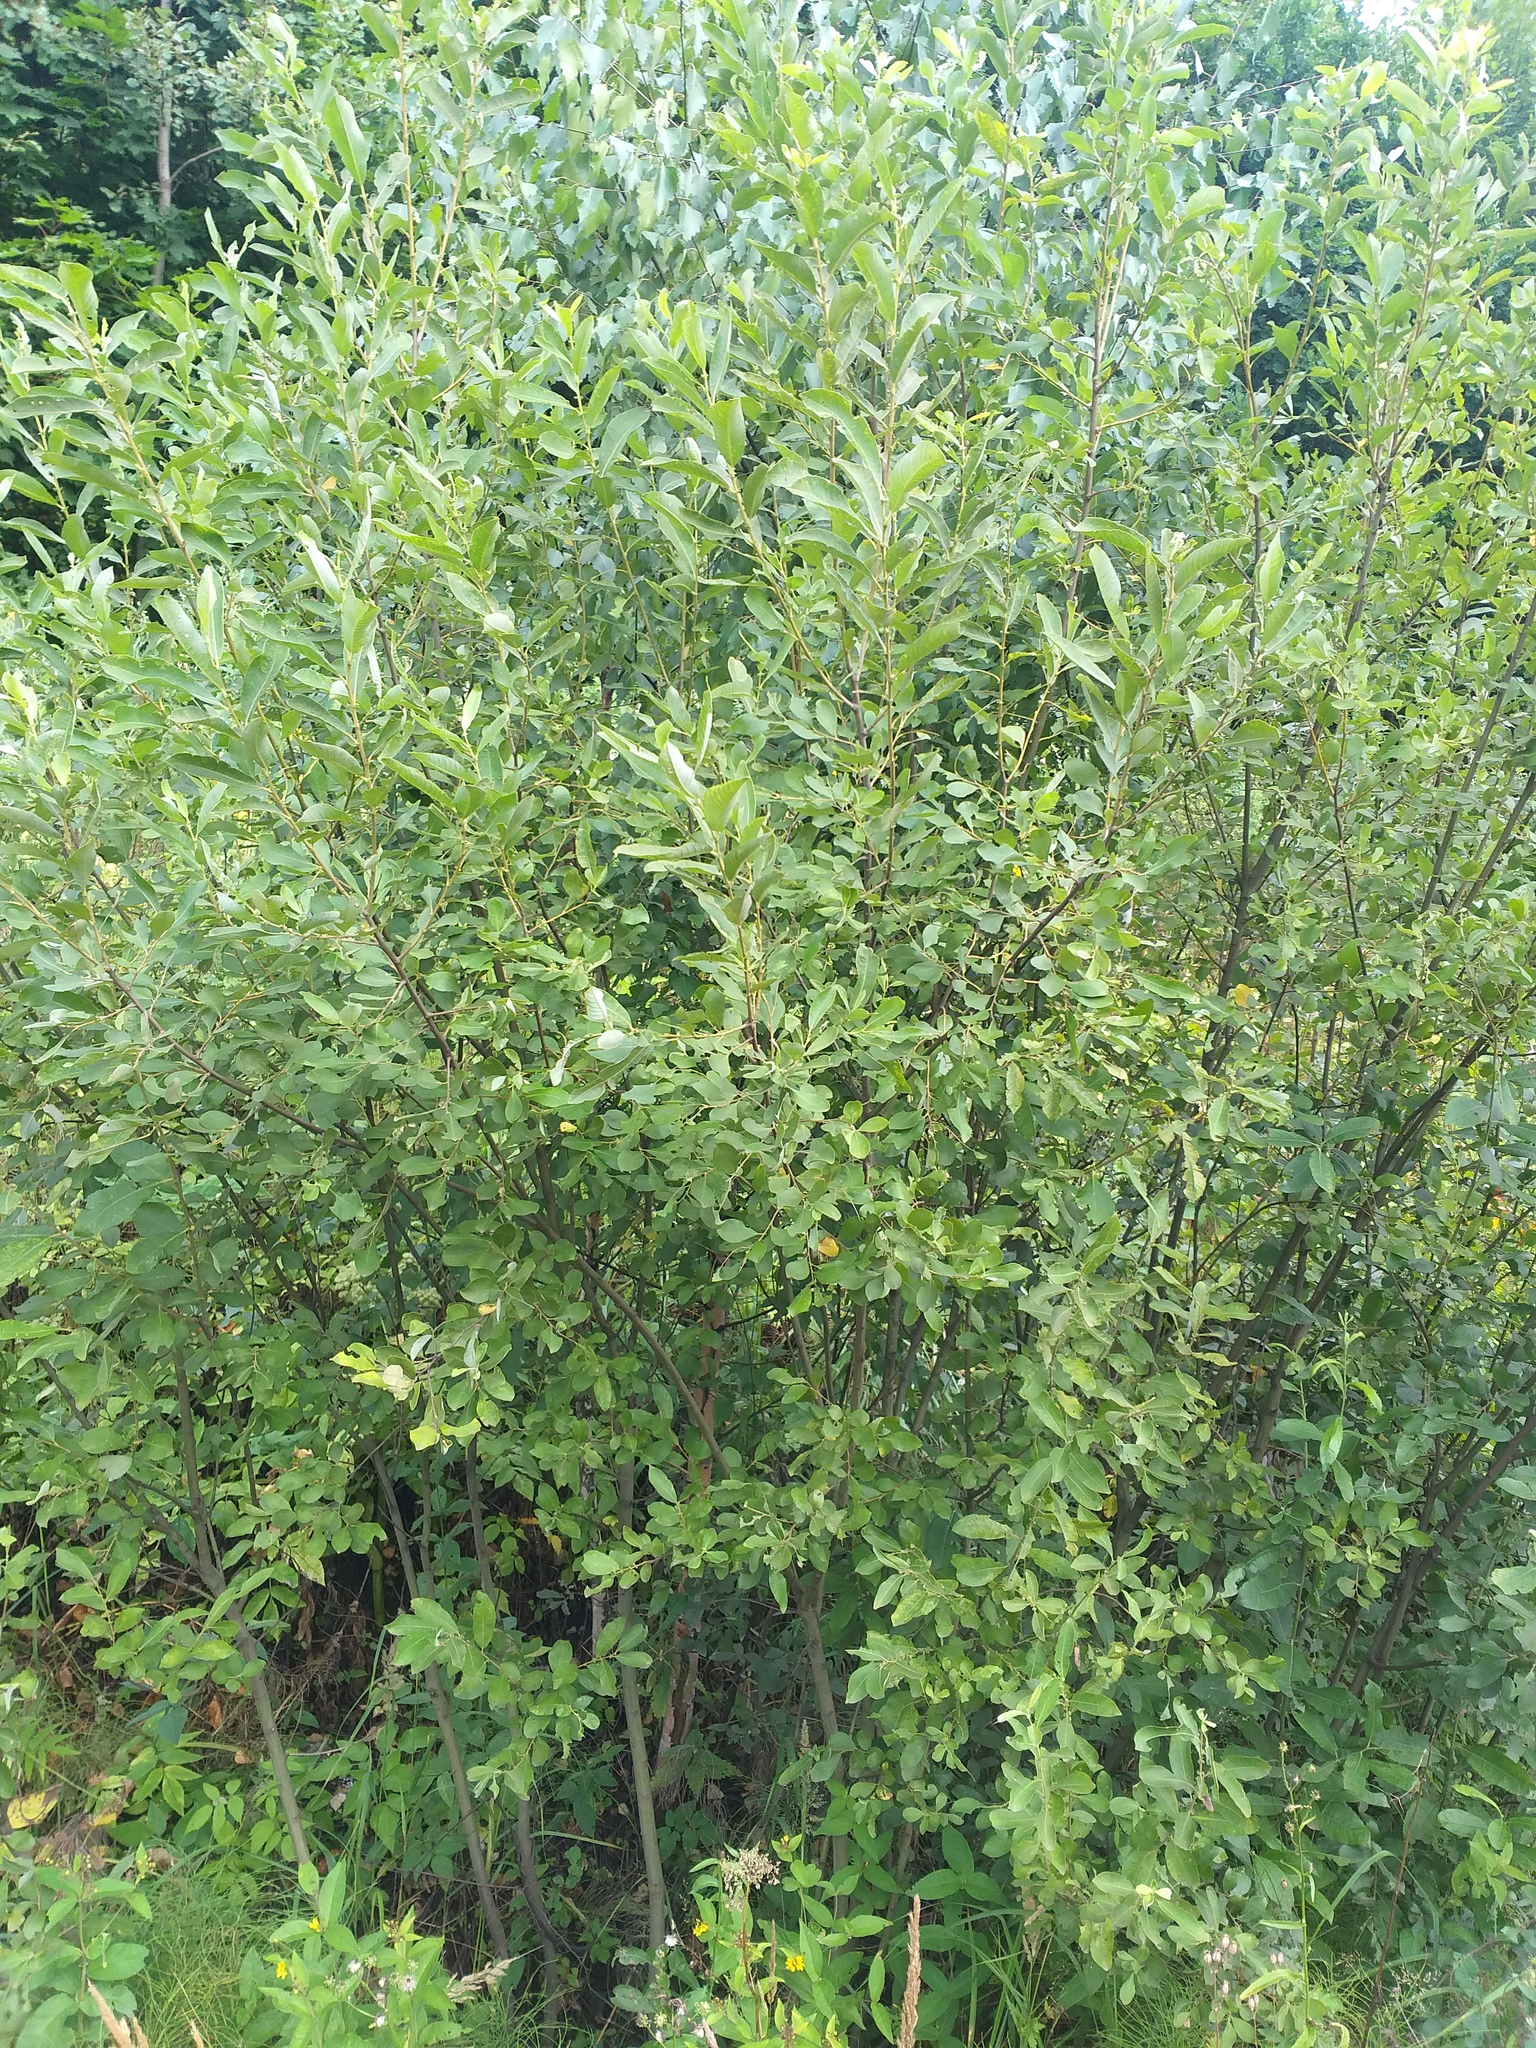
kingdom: Plantae
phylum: Tracheophyta
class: Magnoliopsida
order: Malpighiales
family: Salicaceae
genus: Salix
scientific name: Salix cinerea
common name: Common sallow
